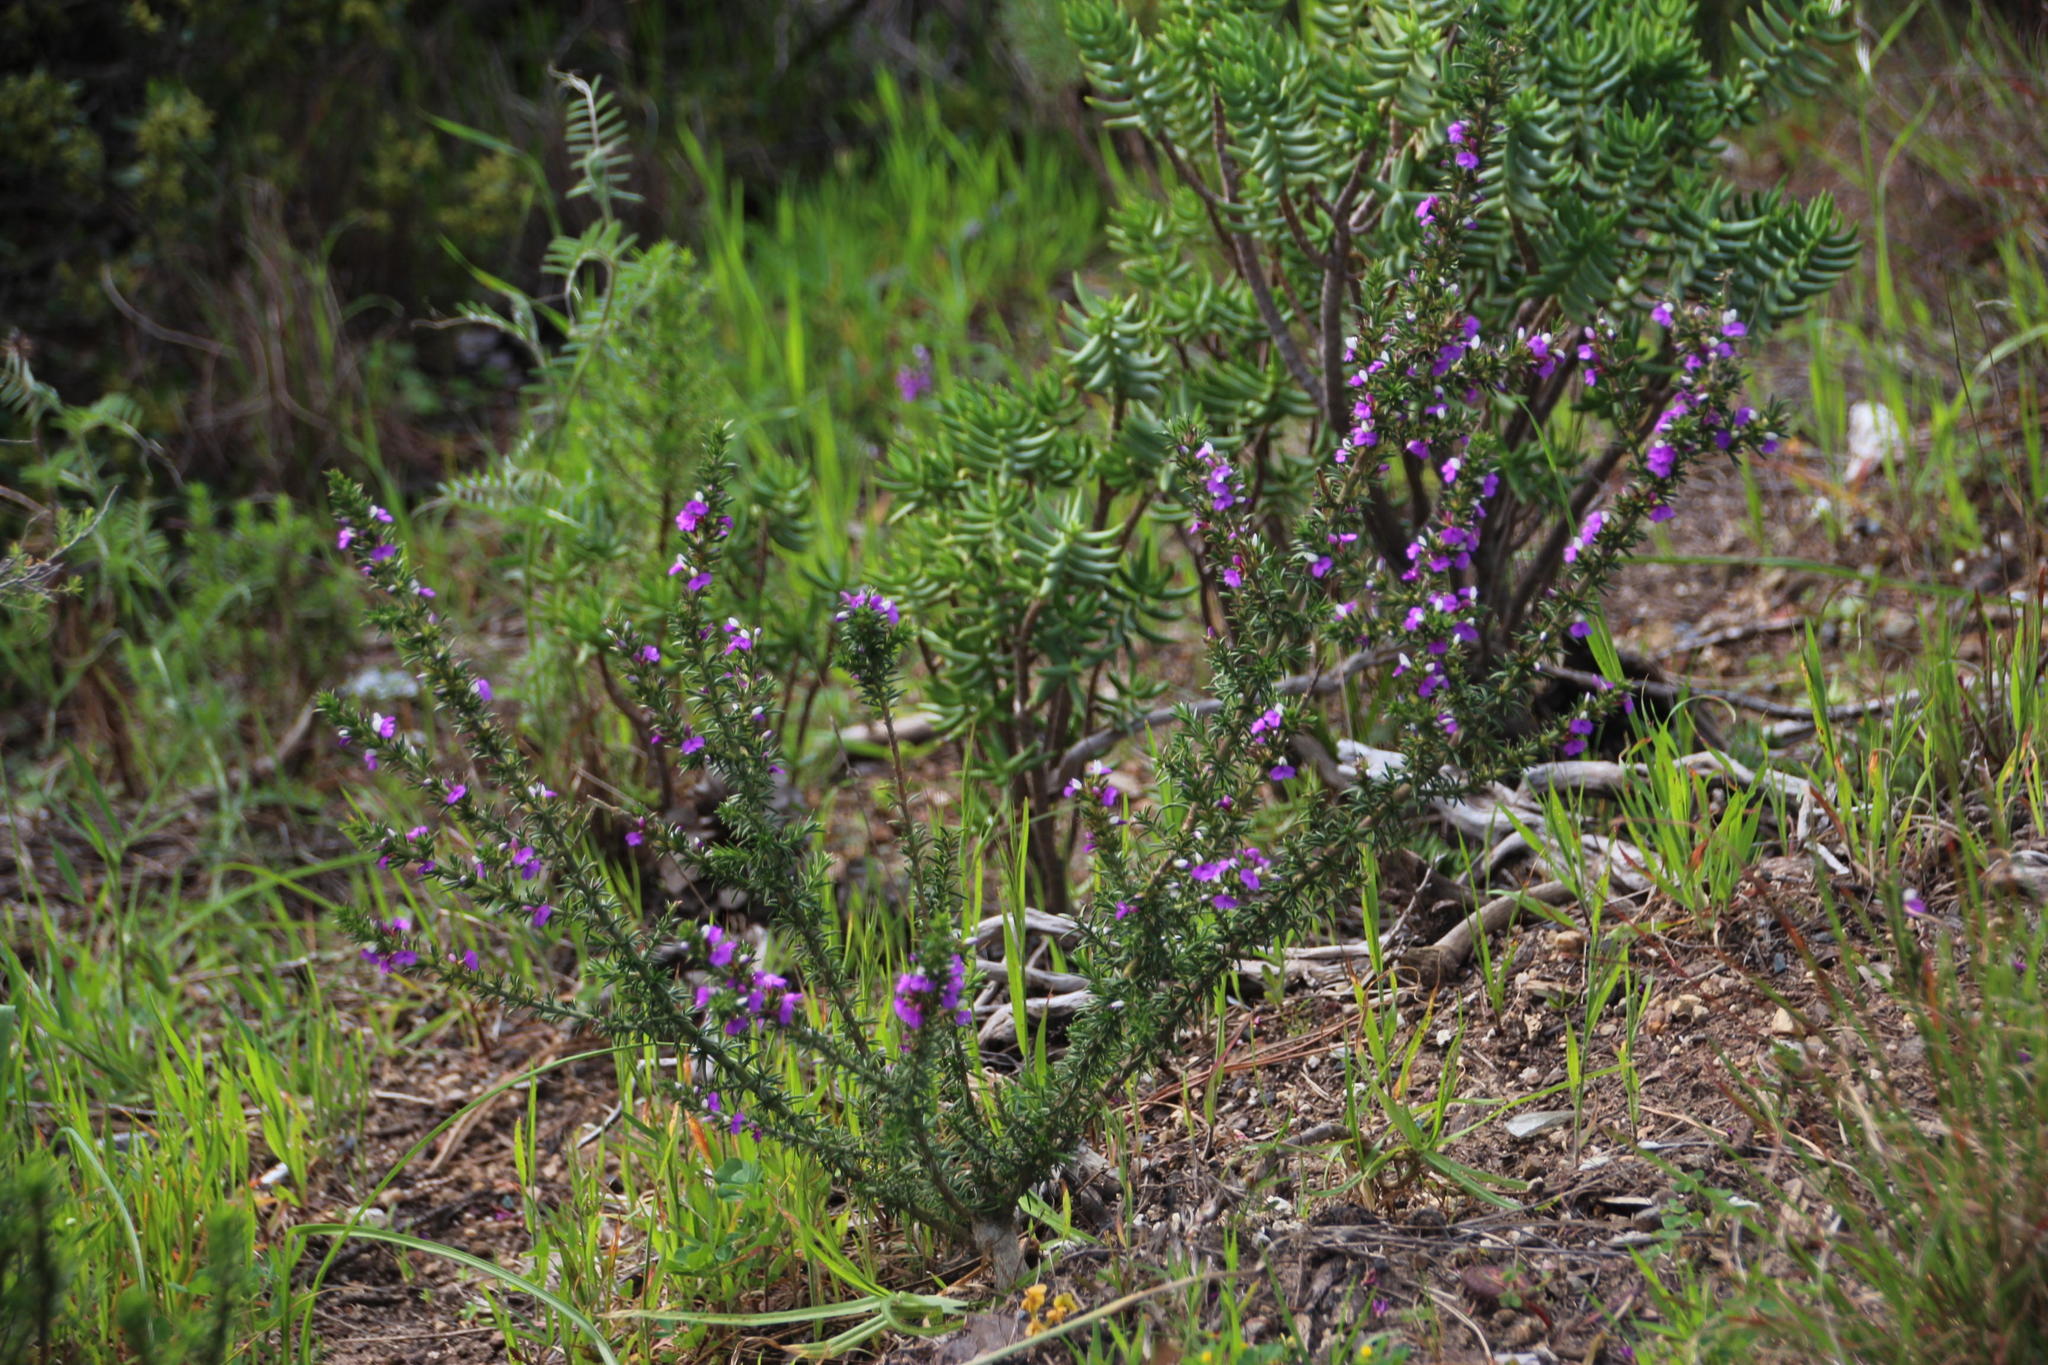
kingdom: Plantae
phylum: Tracheophyta
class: Magnoliopsida
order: Fabales
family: Polygalaceae
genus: Muraltia
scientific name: Muraltia heisteria
